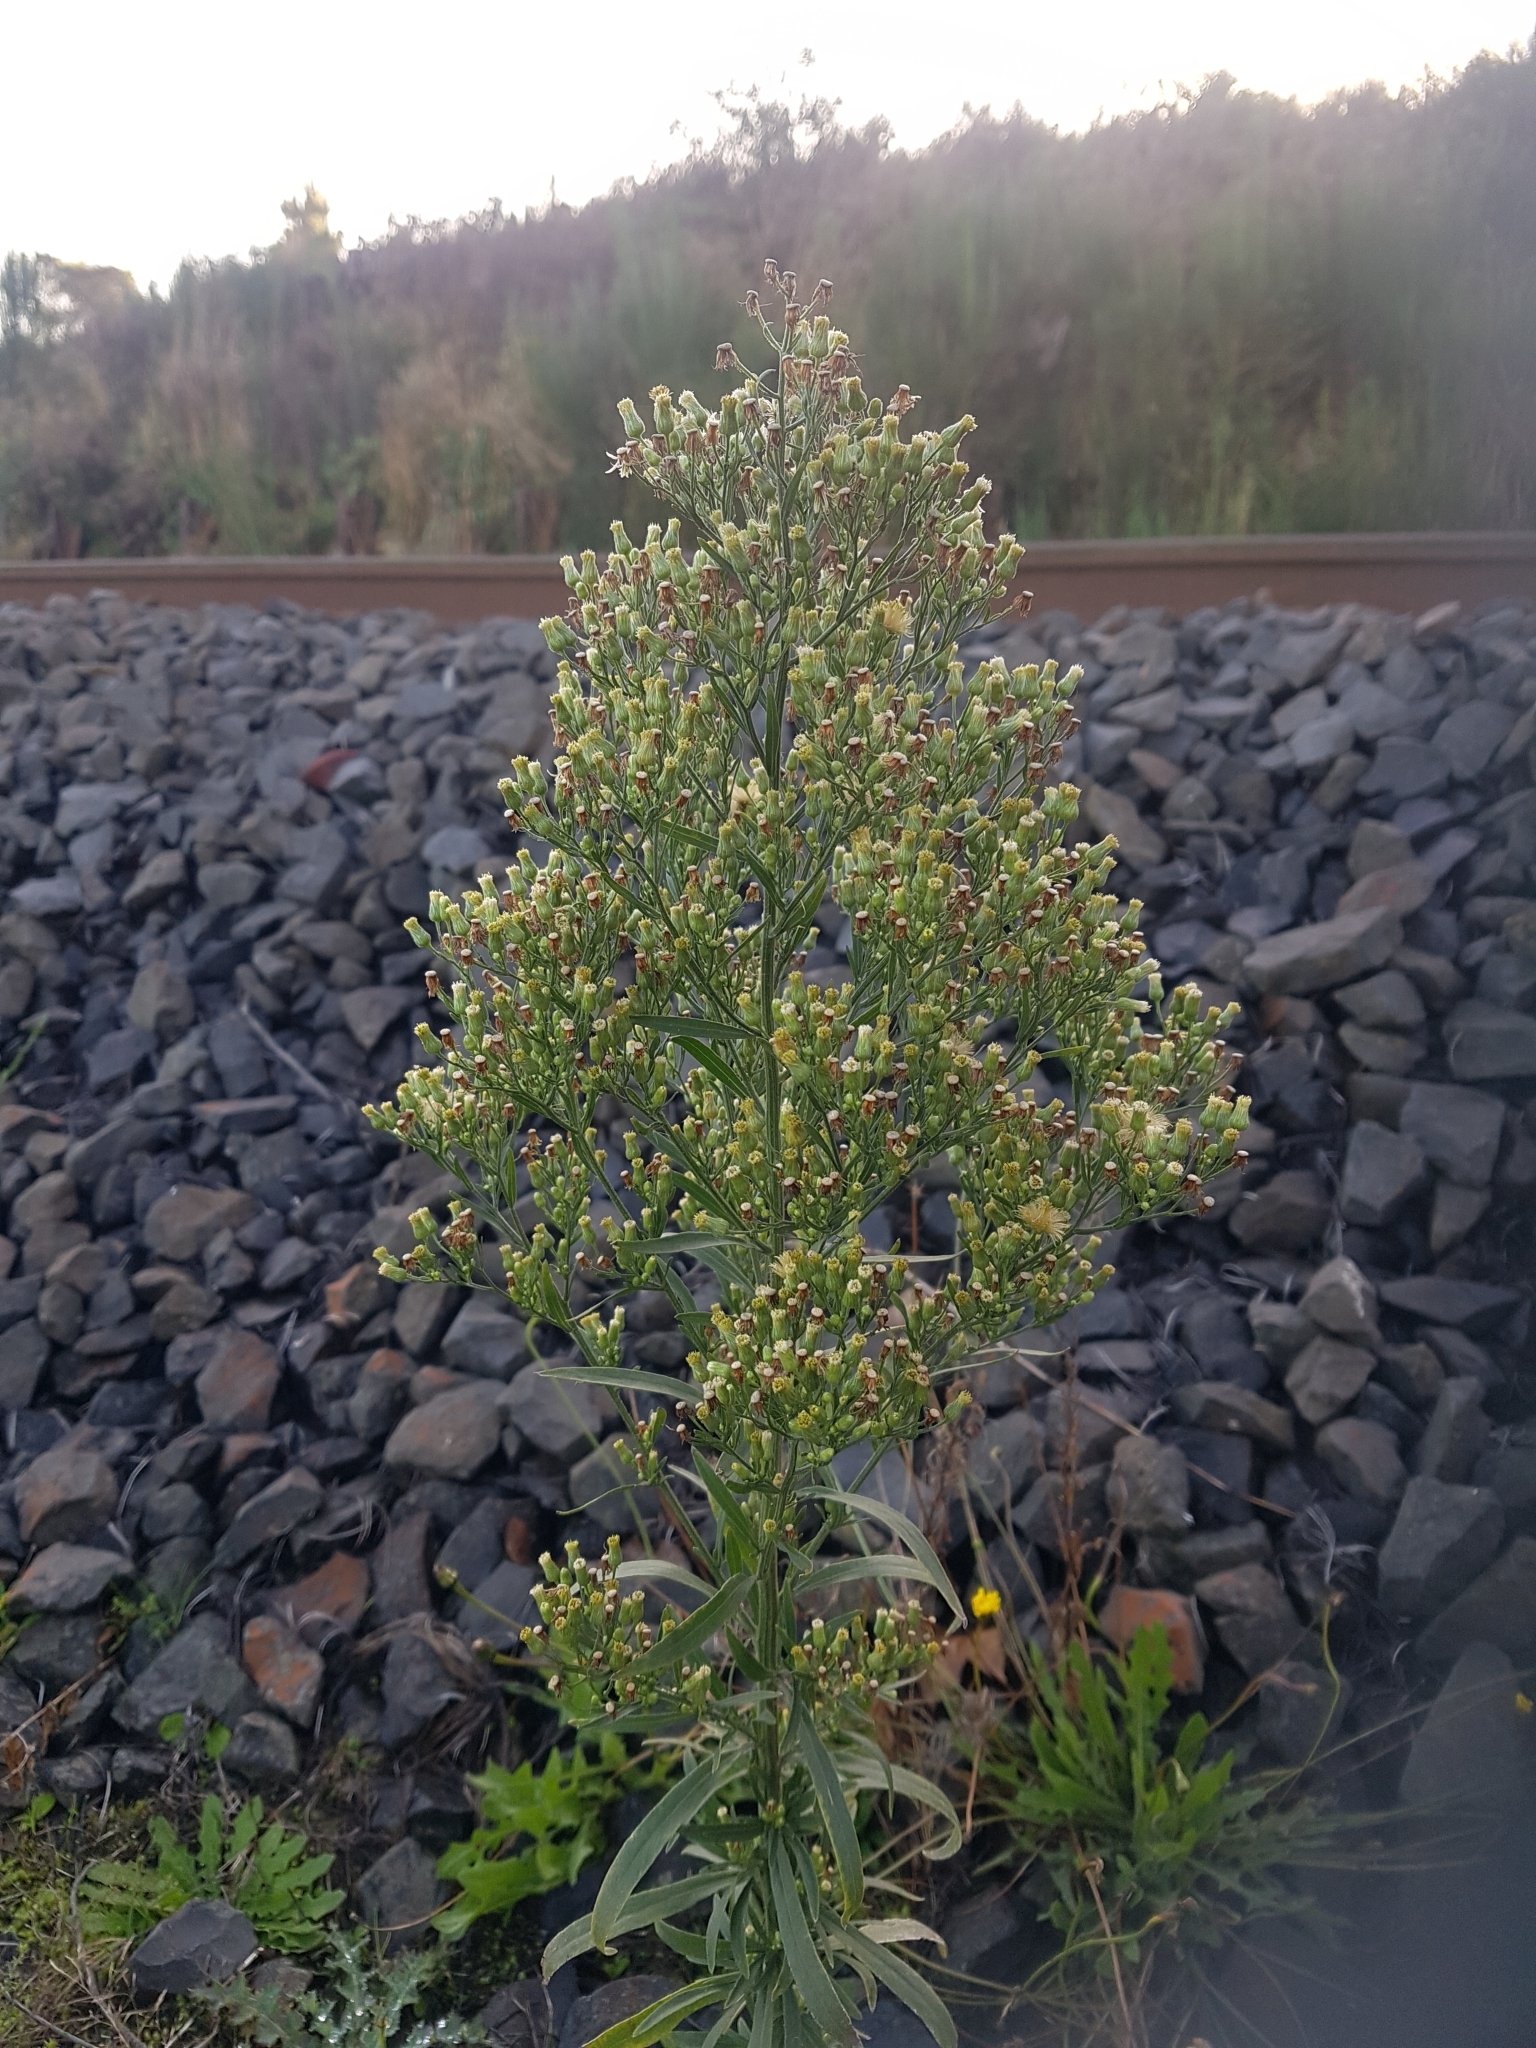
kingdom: Plantae
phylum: Tracheophyta
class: Magnoliopsida
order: Asterales
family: Asteraceae
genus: Erigeron
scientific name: Erigeron sumatrensis
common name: Daisy
